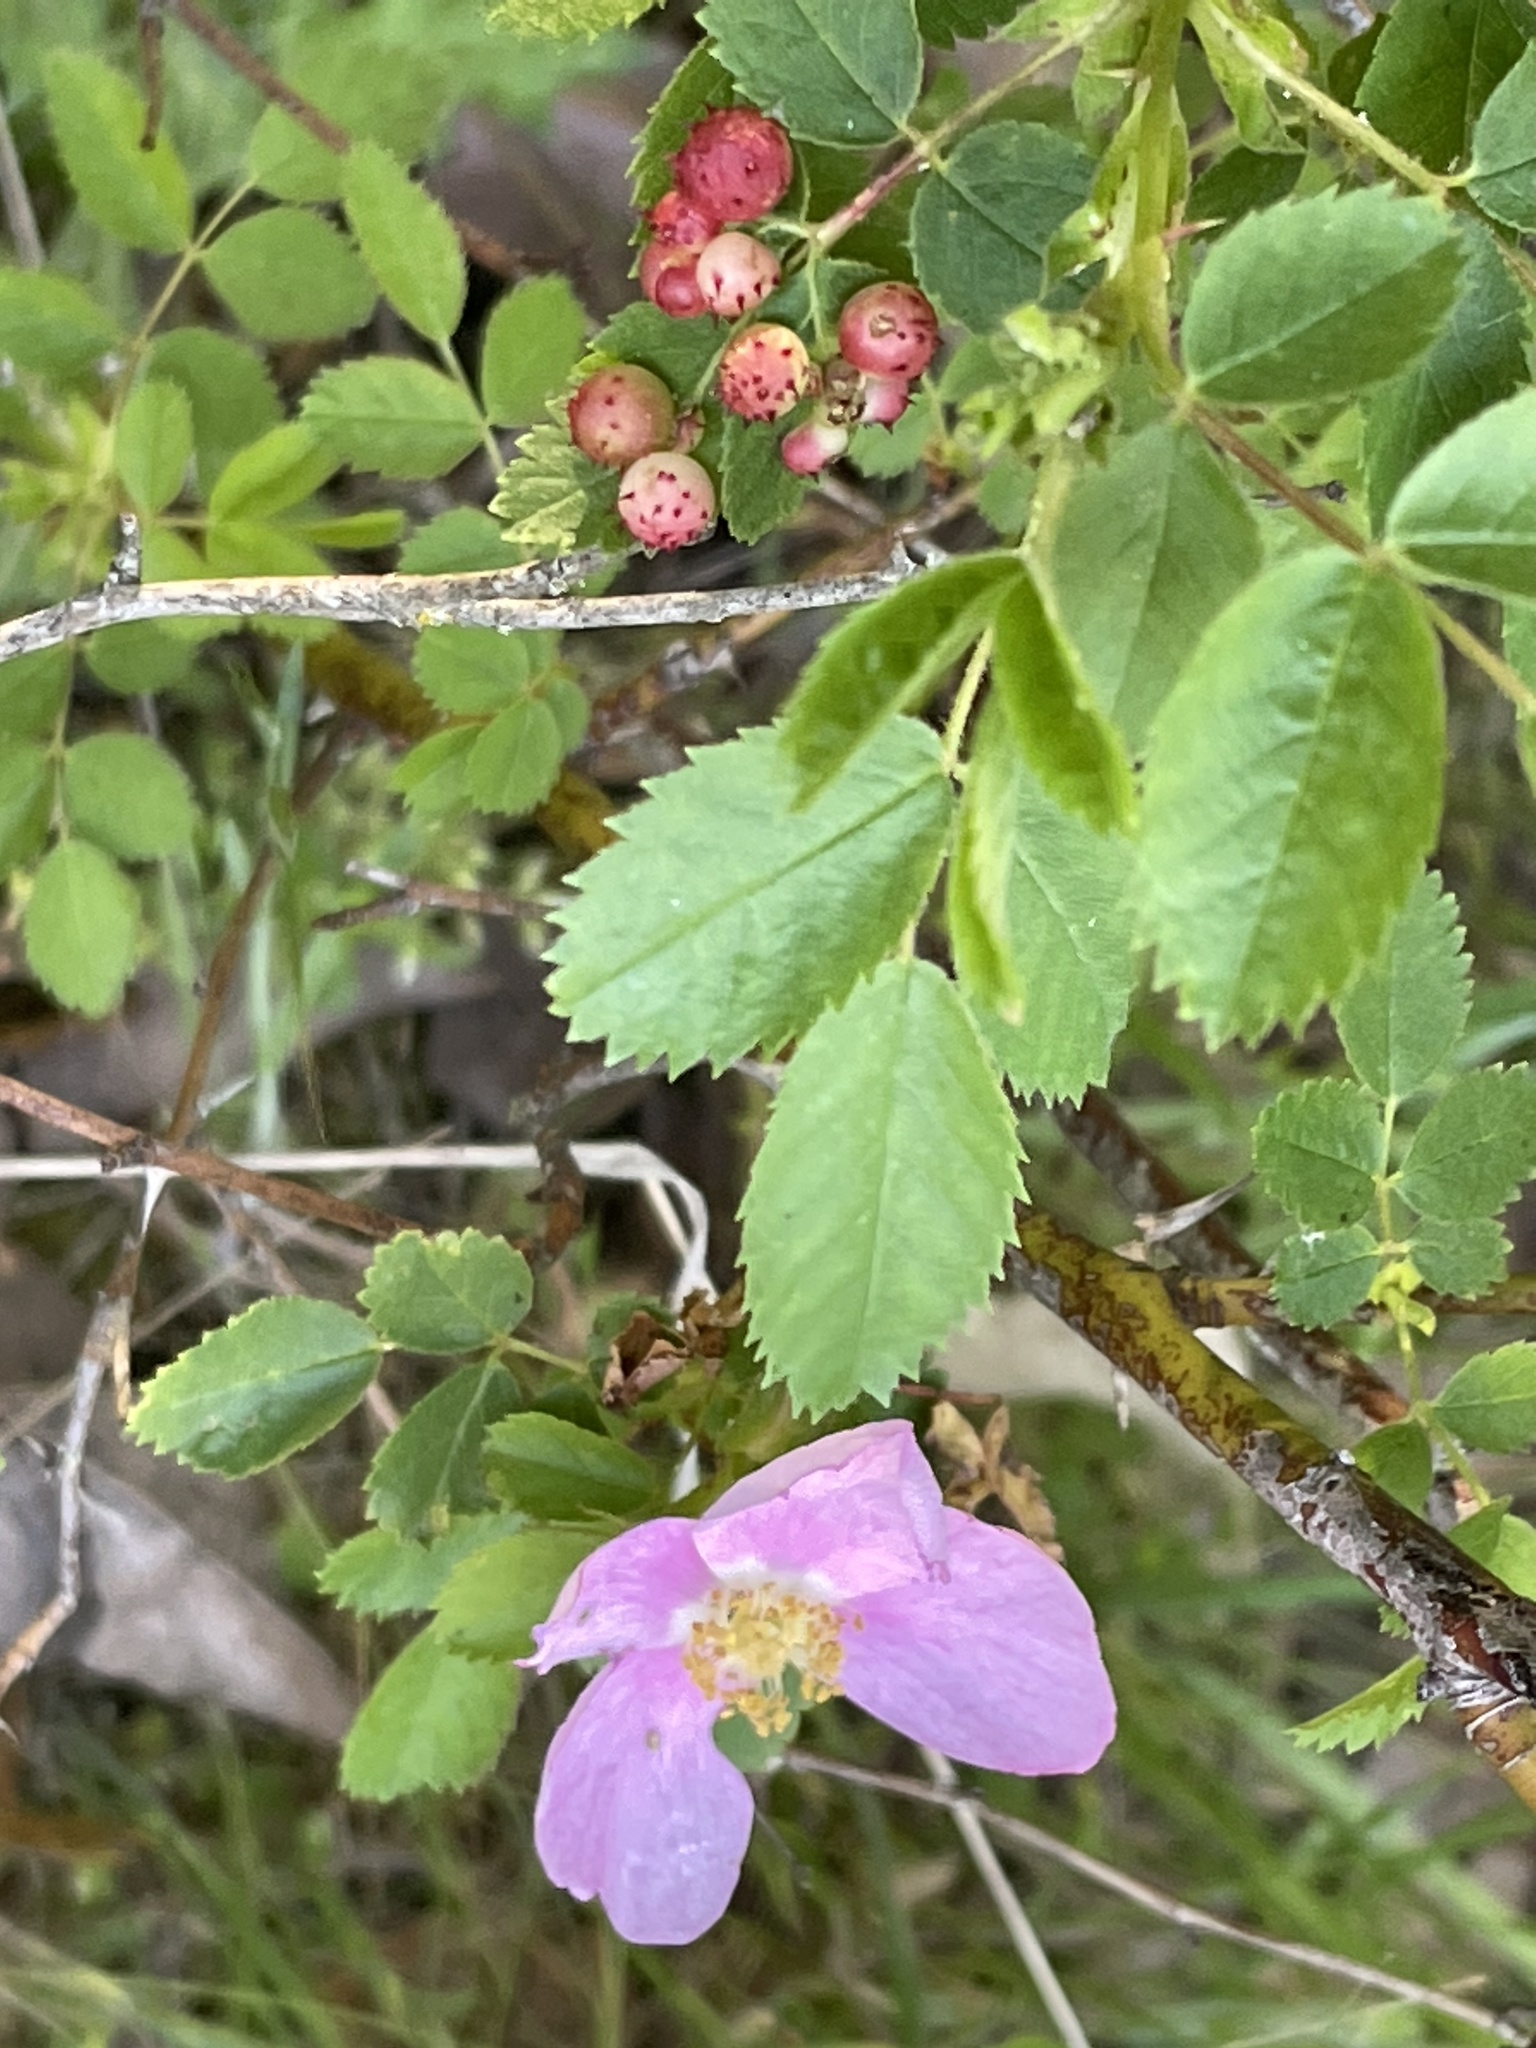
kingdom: Animalia
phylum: Arthropoda
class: Insecta
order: Hymenoptera
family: Cynipidae
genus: Diplolepis
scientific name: Diplolepis polita
